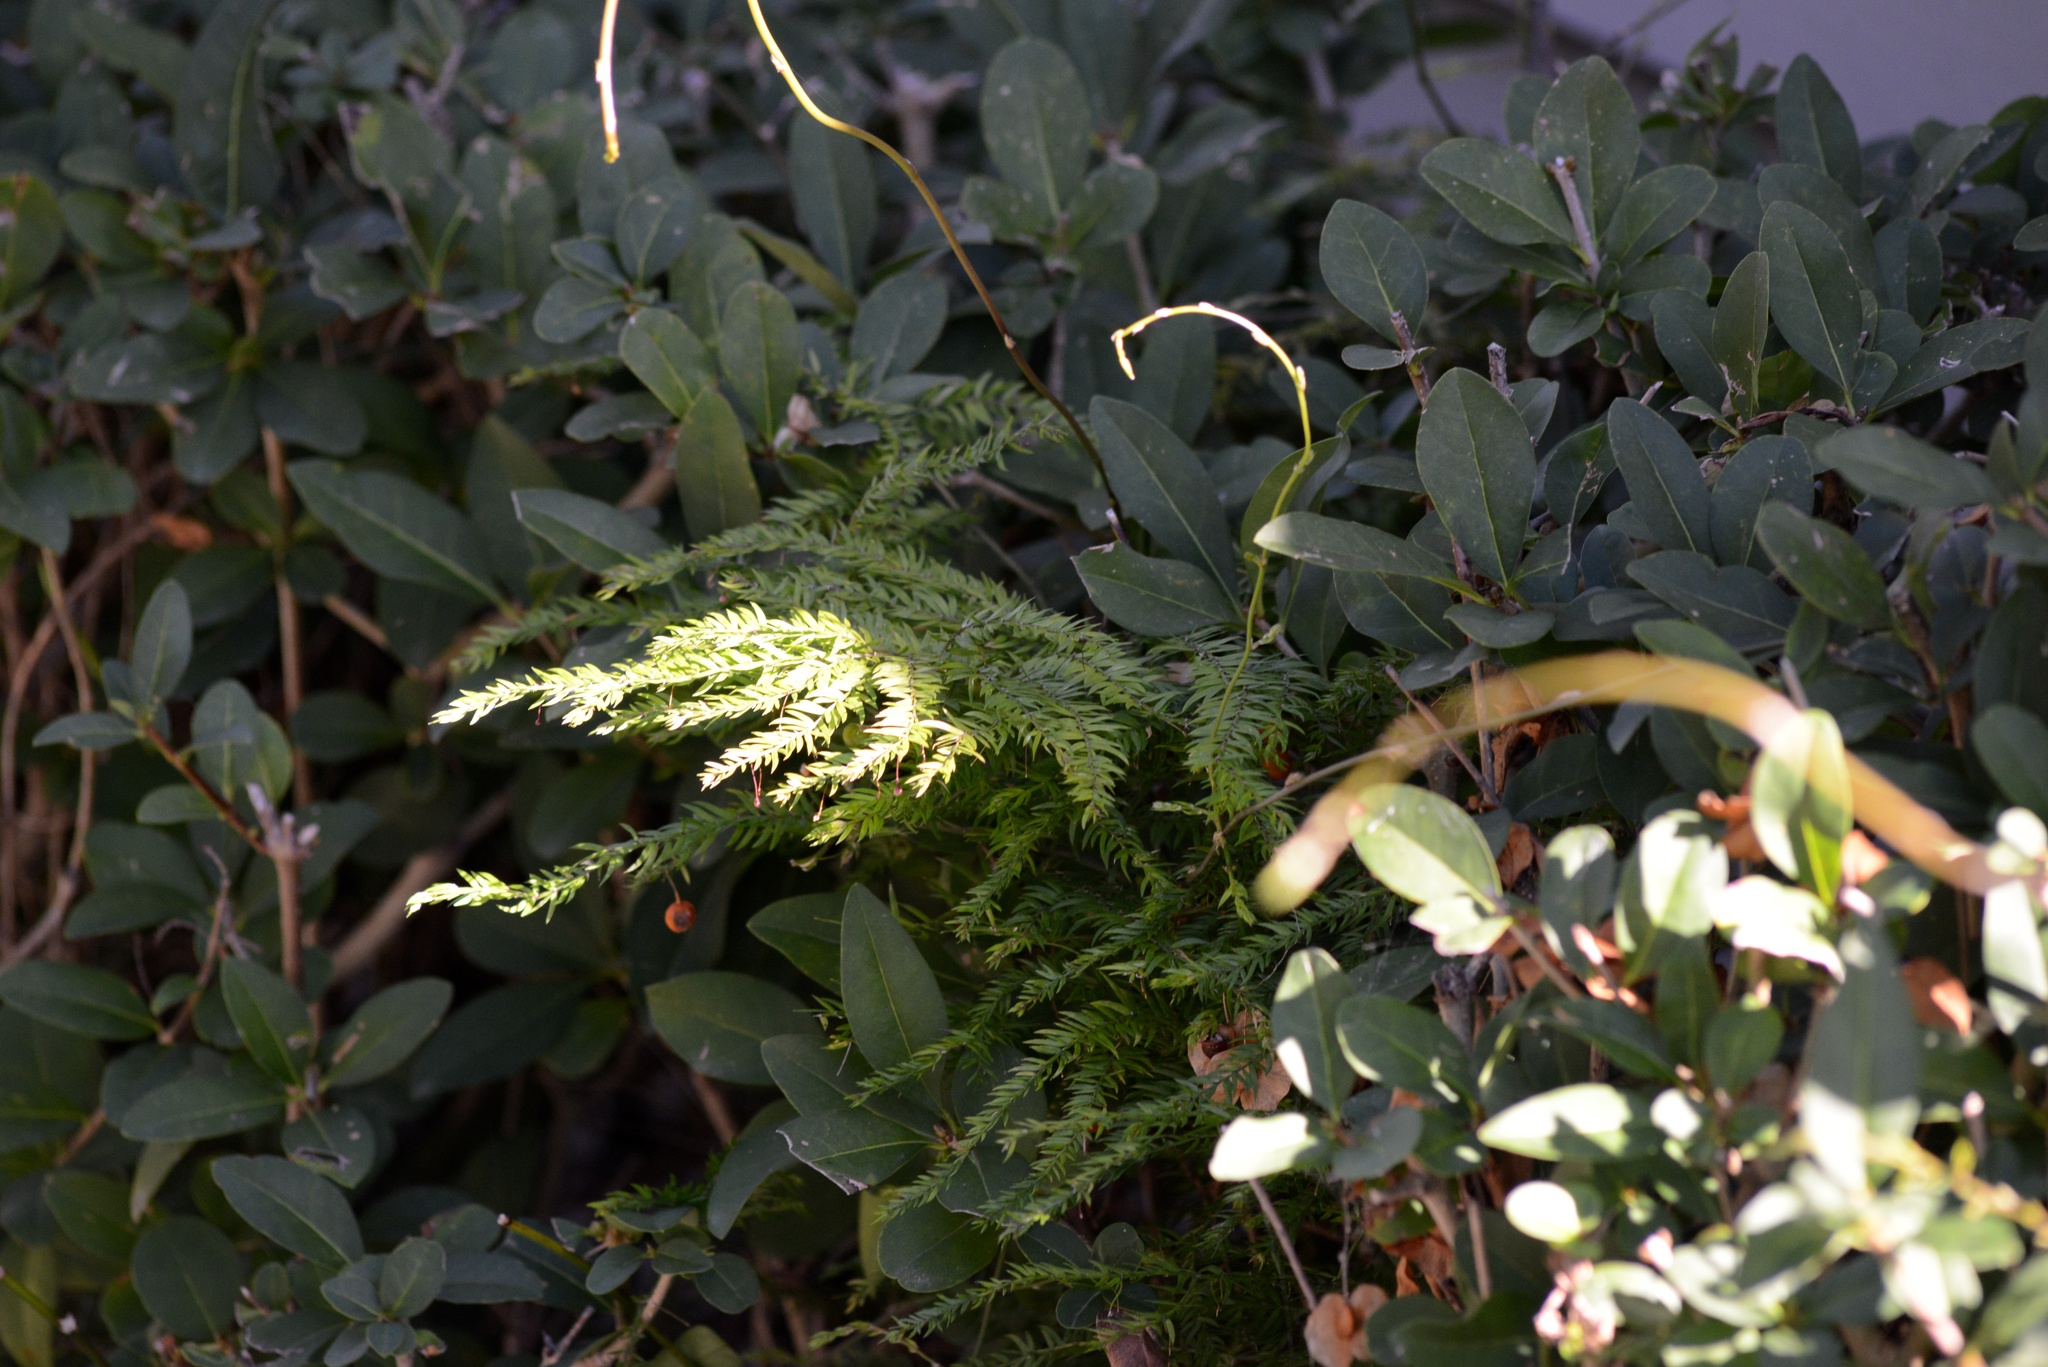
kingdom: Plantae
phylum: Tracheophyta
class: Liliopsida
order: Asparagales
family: Asparagaceae
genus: Asparagus
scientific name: Asparagus scandens
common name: Asparagus-fern
